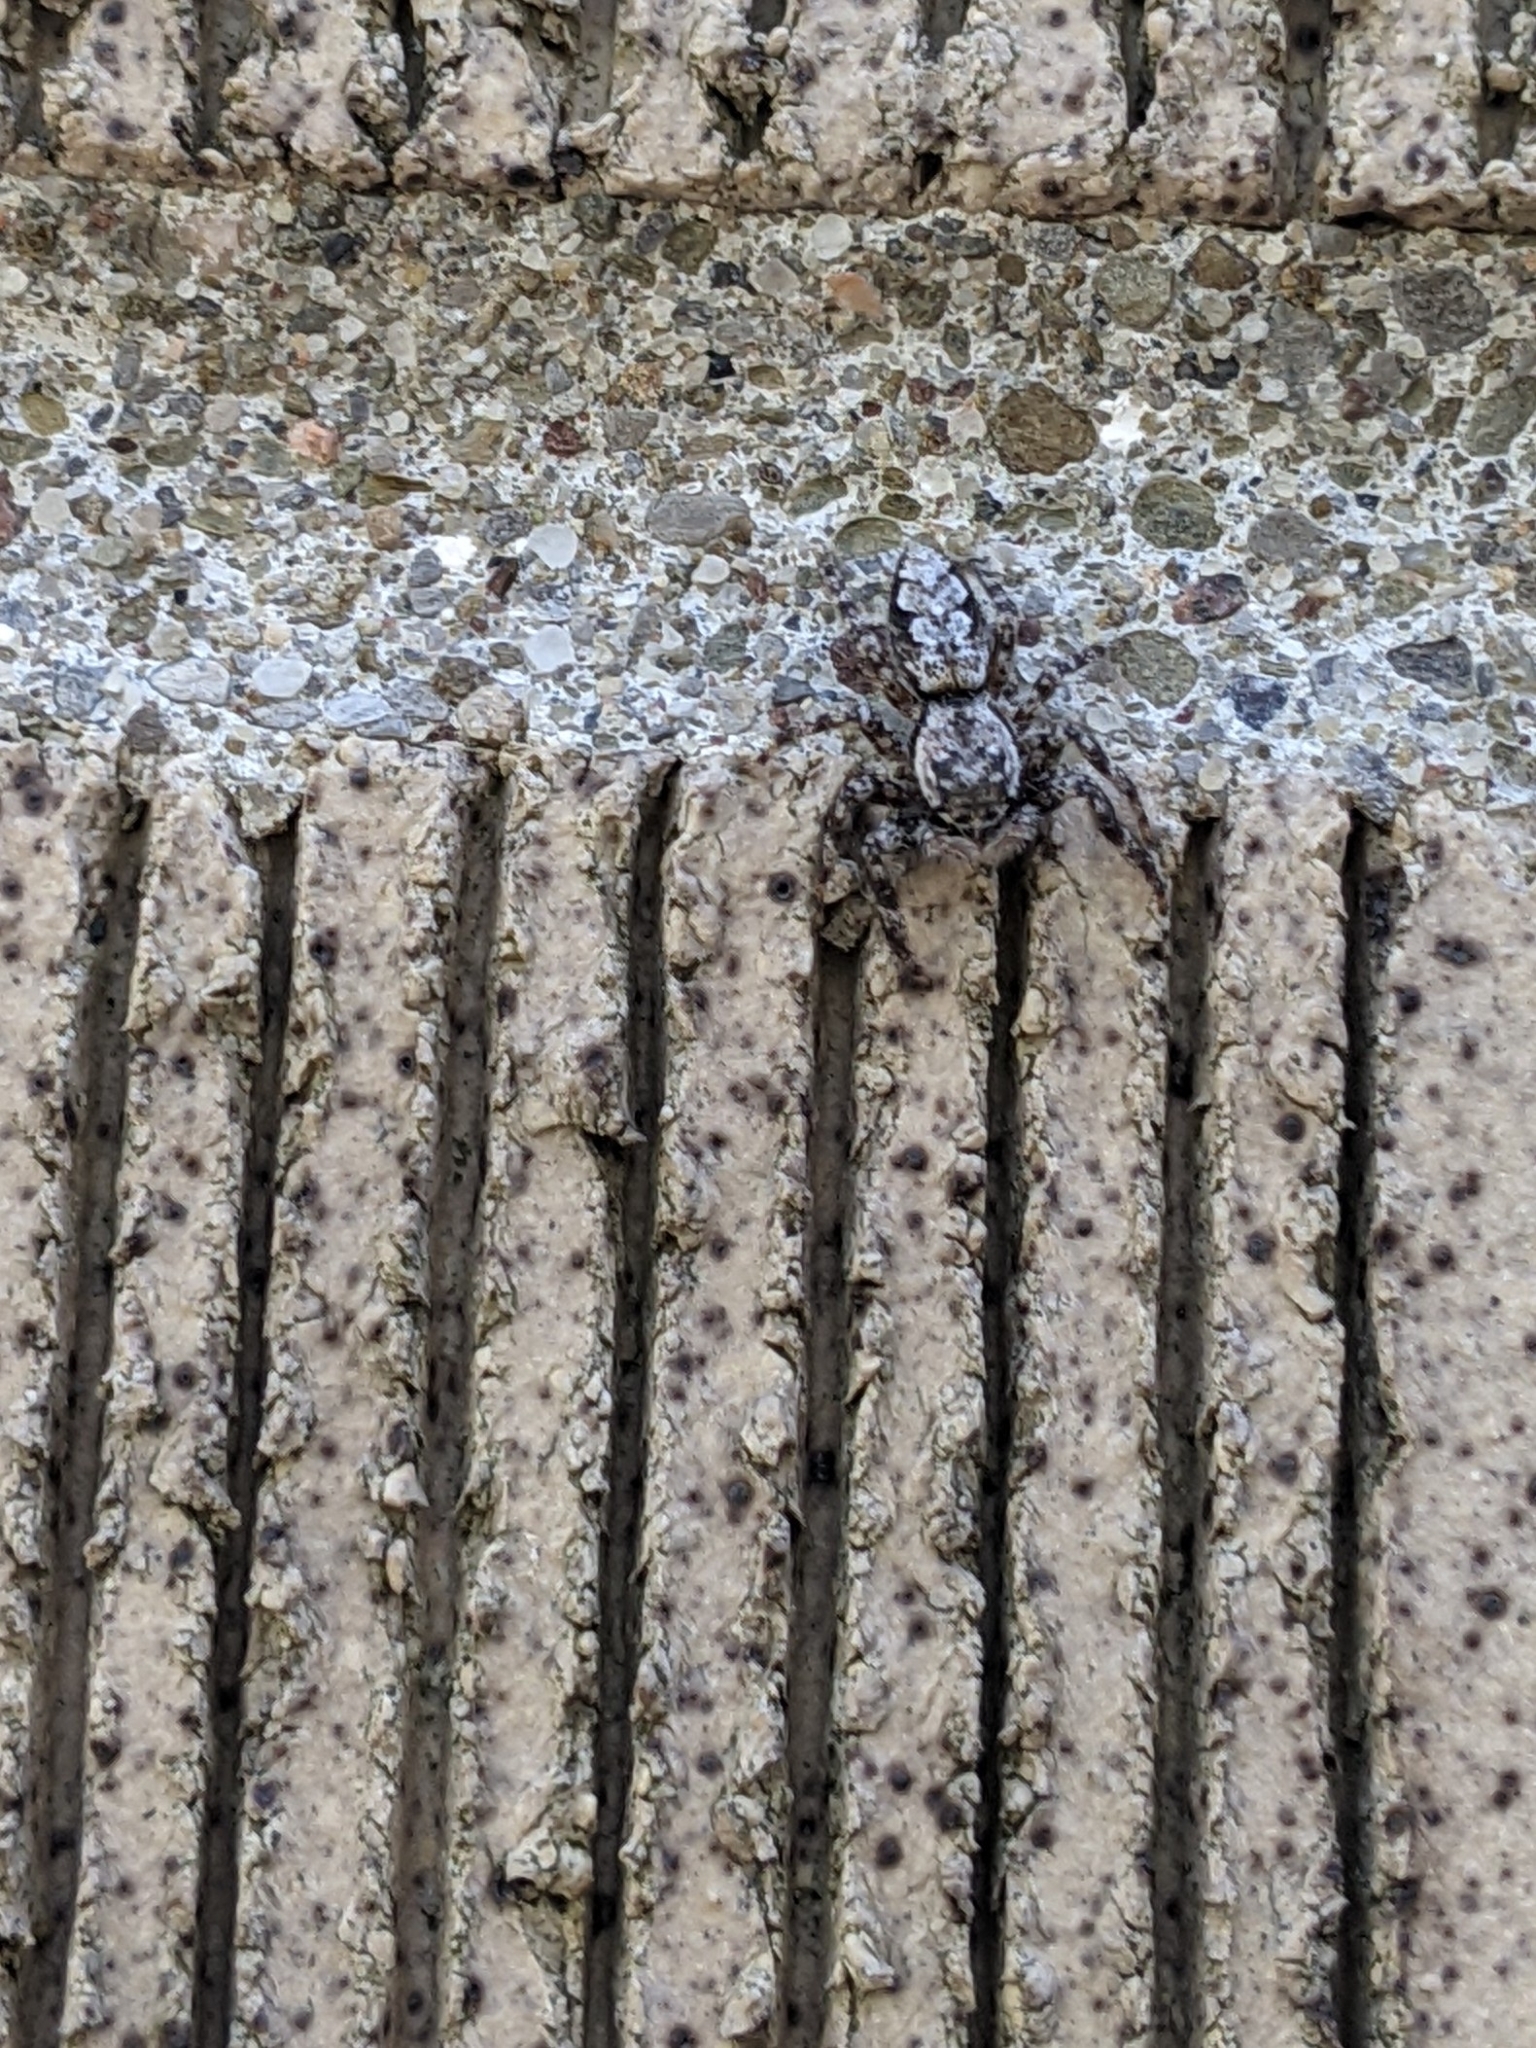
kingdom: Animalia
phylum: Arthropoda
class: Arachnida
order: Araneae
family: Salticidae
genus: Platycryptus
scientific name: Platycryptus undatus
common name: Tan jumping spider
